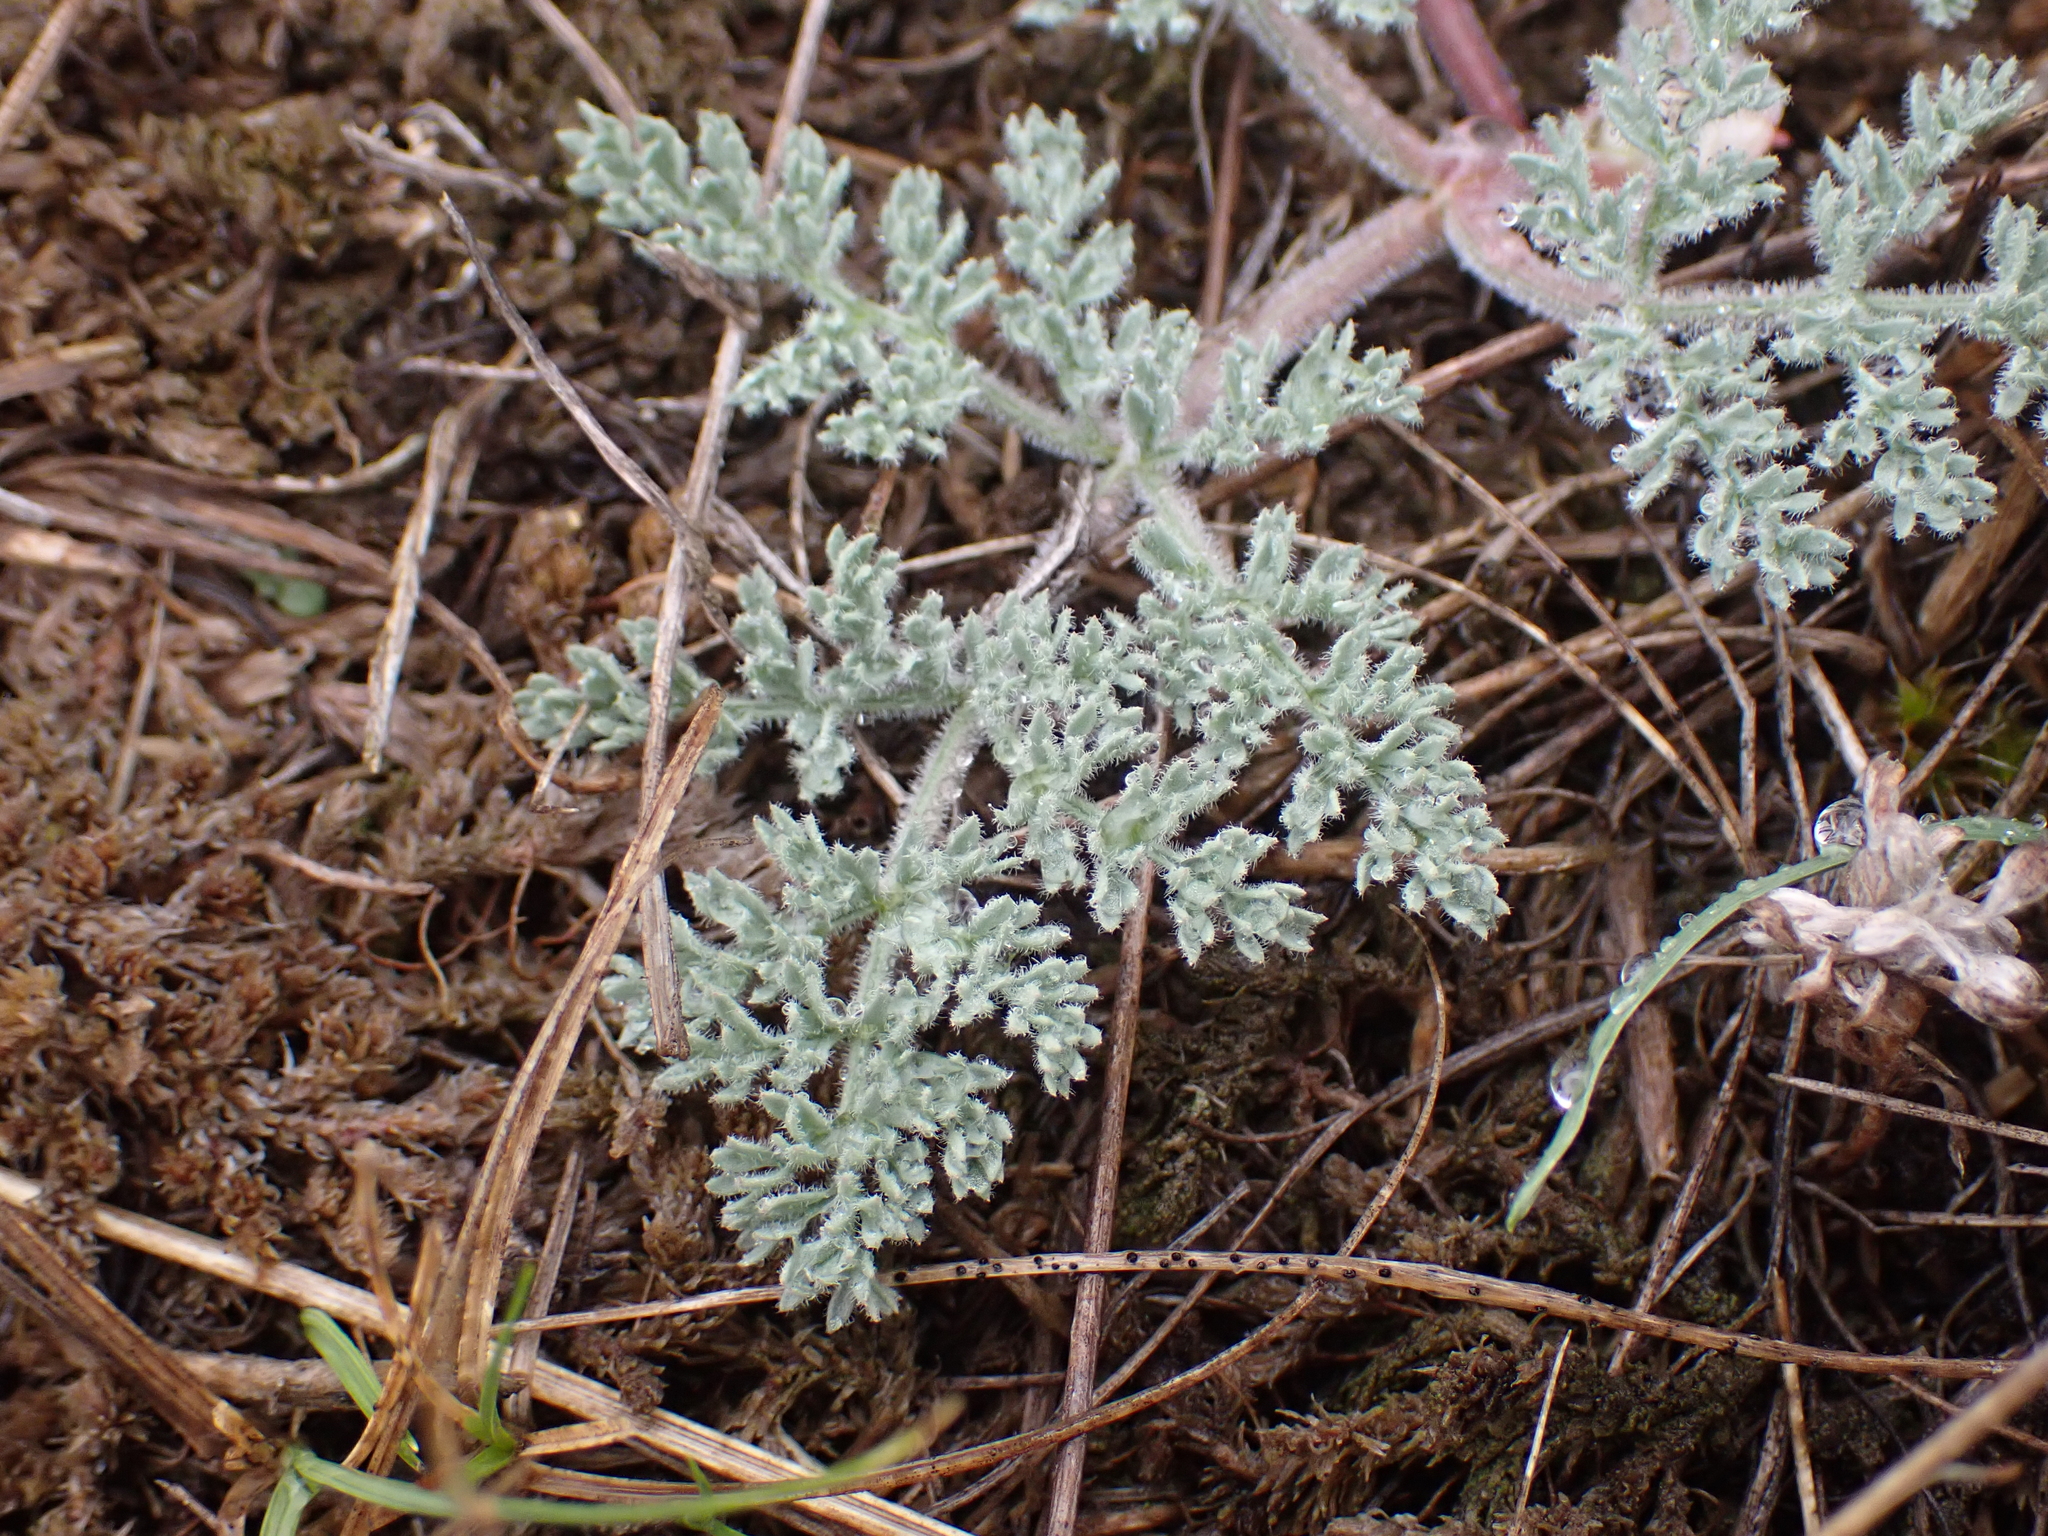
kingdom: Plantae
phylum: Tracheophyta
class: Magnoliopsida
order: Apiales
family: Apiaceae
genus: Lomatium
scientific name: Lomatium foeniculaceum
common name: Desert-parsley
